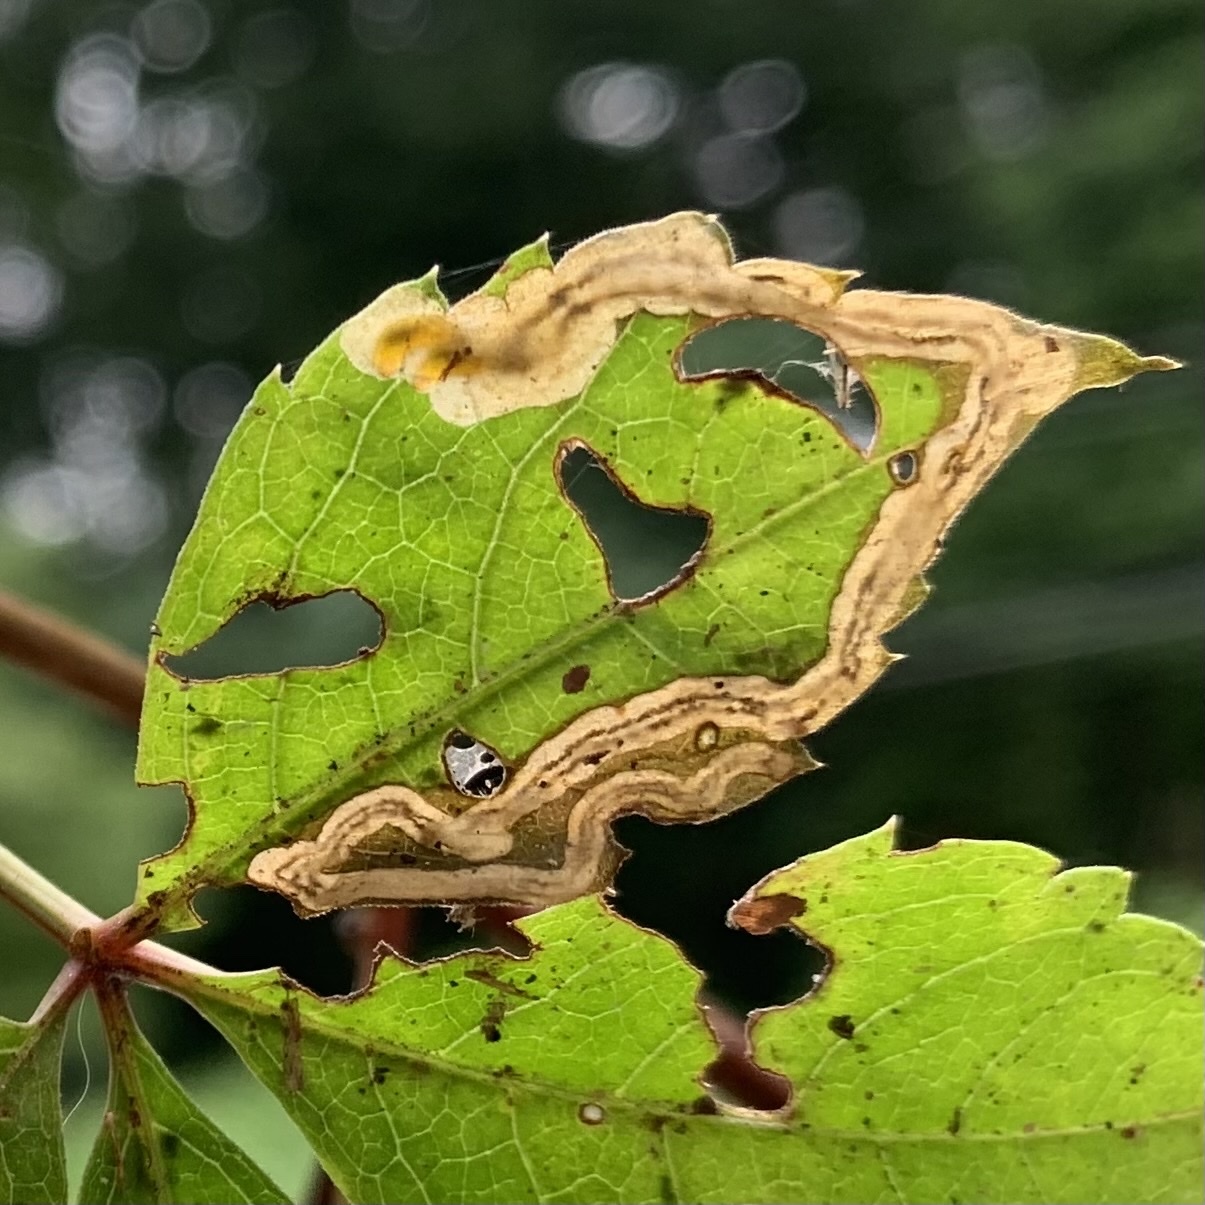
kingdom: Animalia
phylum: Arthropoda
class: Insecta
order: Coleoptera
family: Curculionidae
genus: Orchestomerus
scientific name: Orchestomerus eisemani
